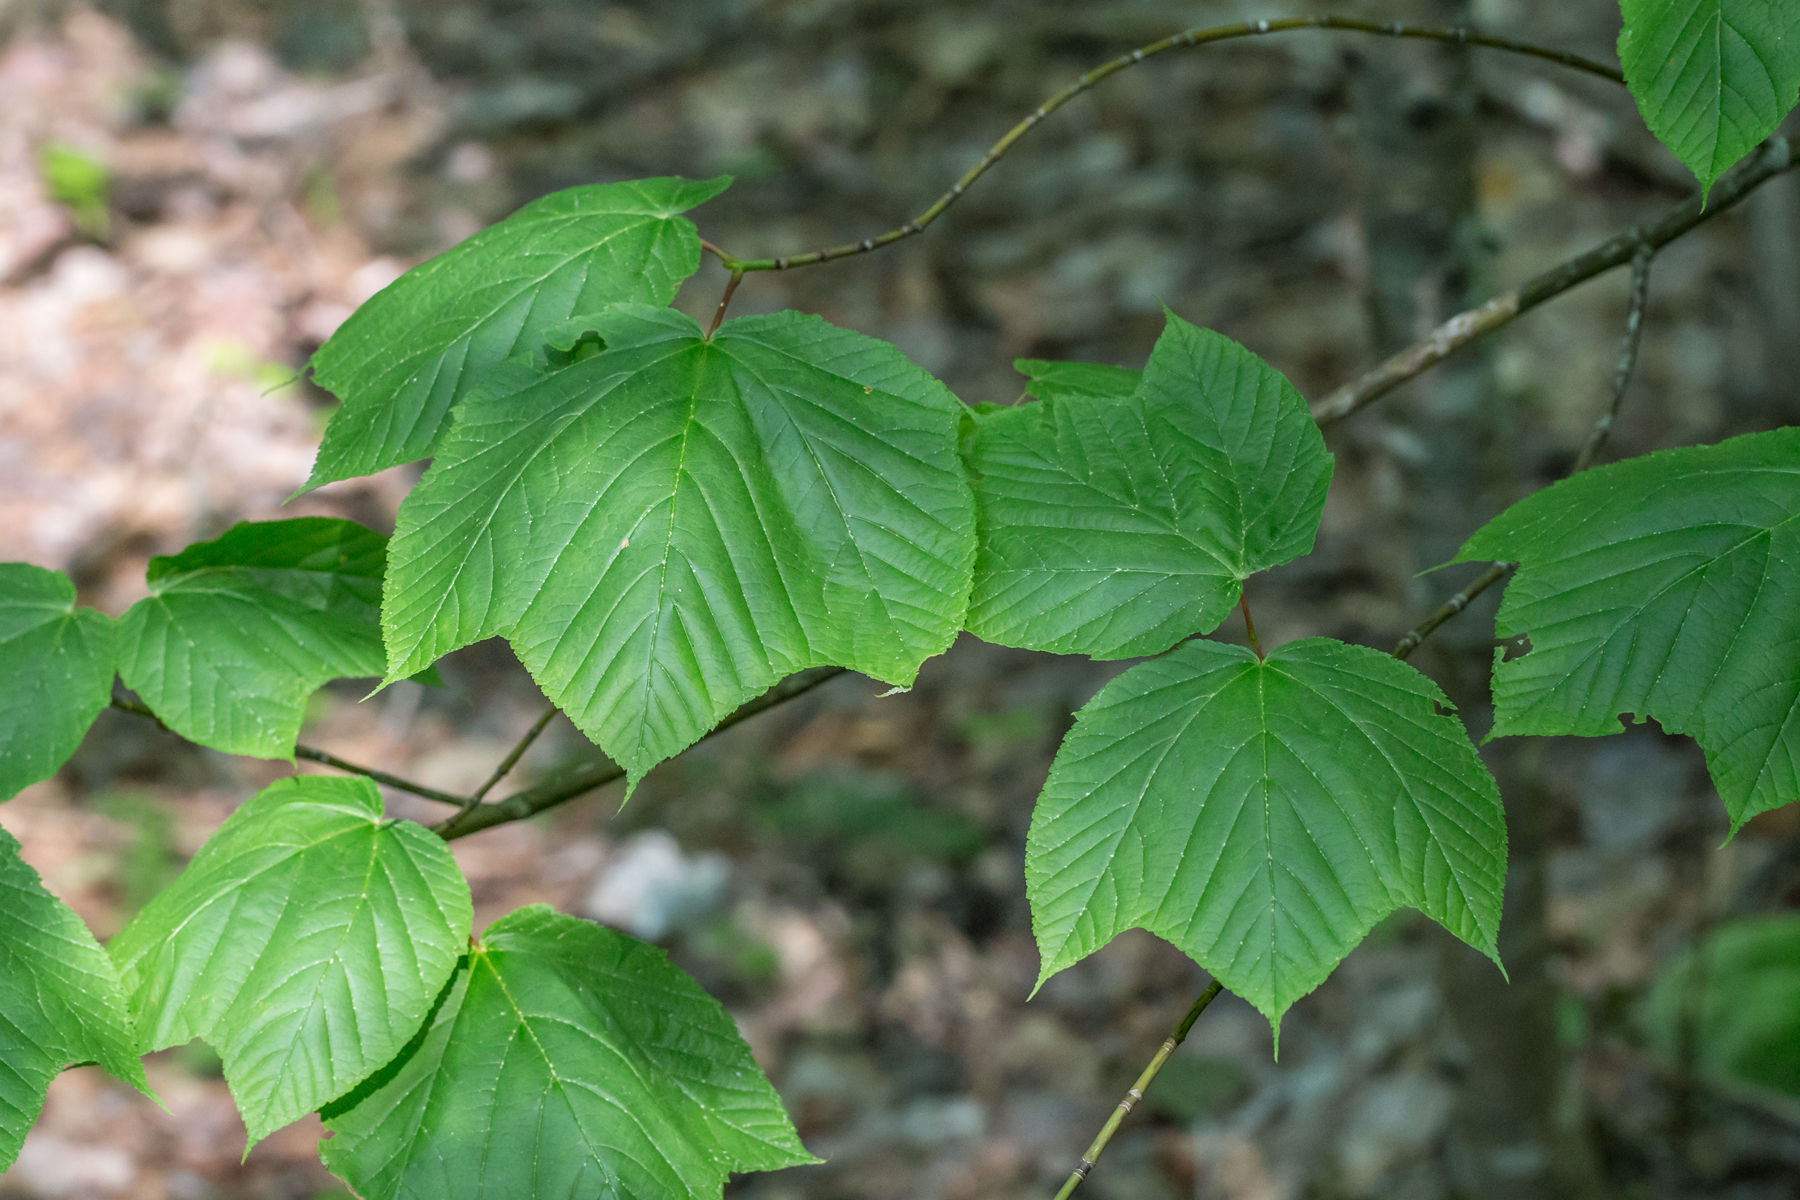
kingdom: Plantae
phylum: Tracheophyta
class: Magnoliopsida
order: Sapindales
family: Sapindaceae
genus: Acer
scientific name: Acer pensylvanicum
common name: Moosewood
